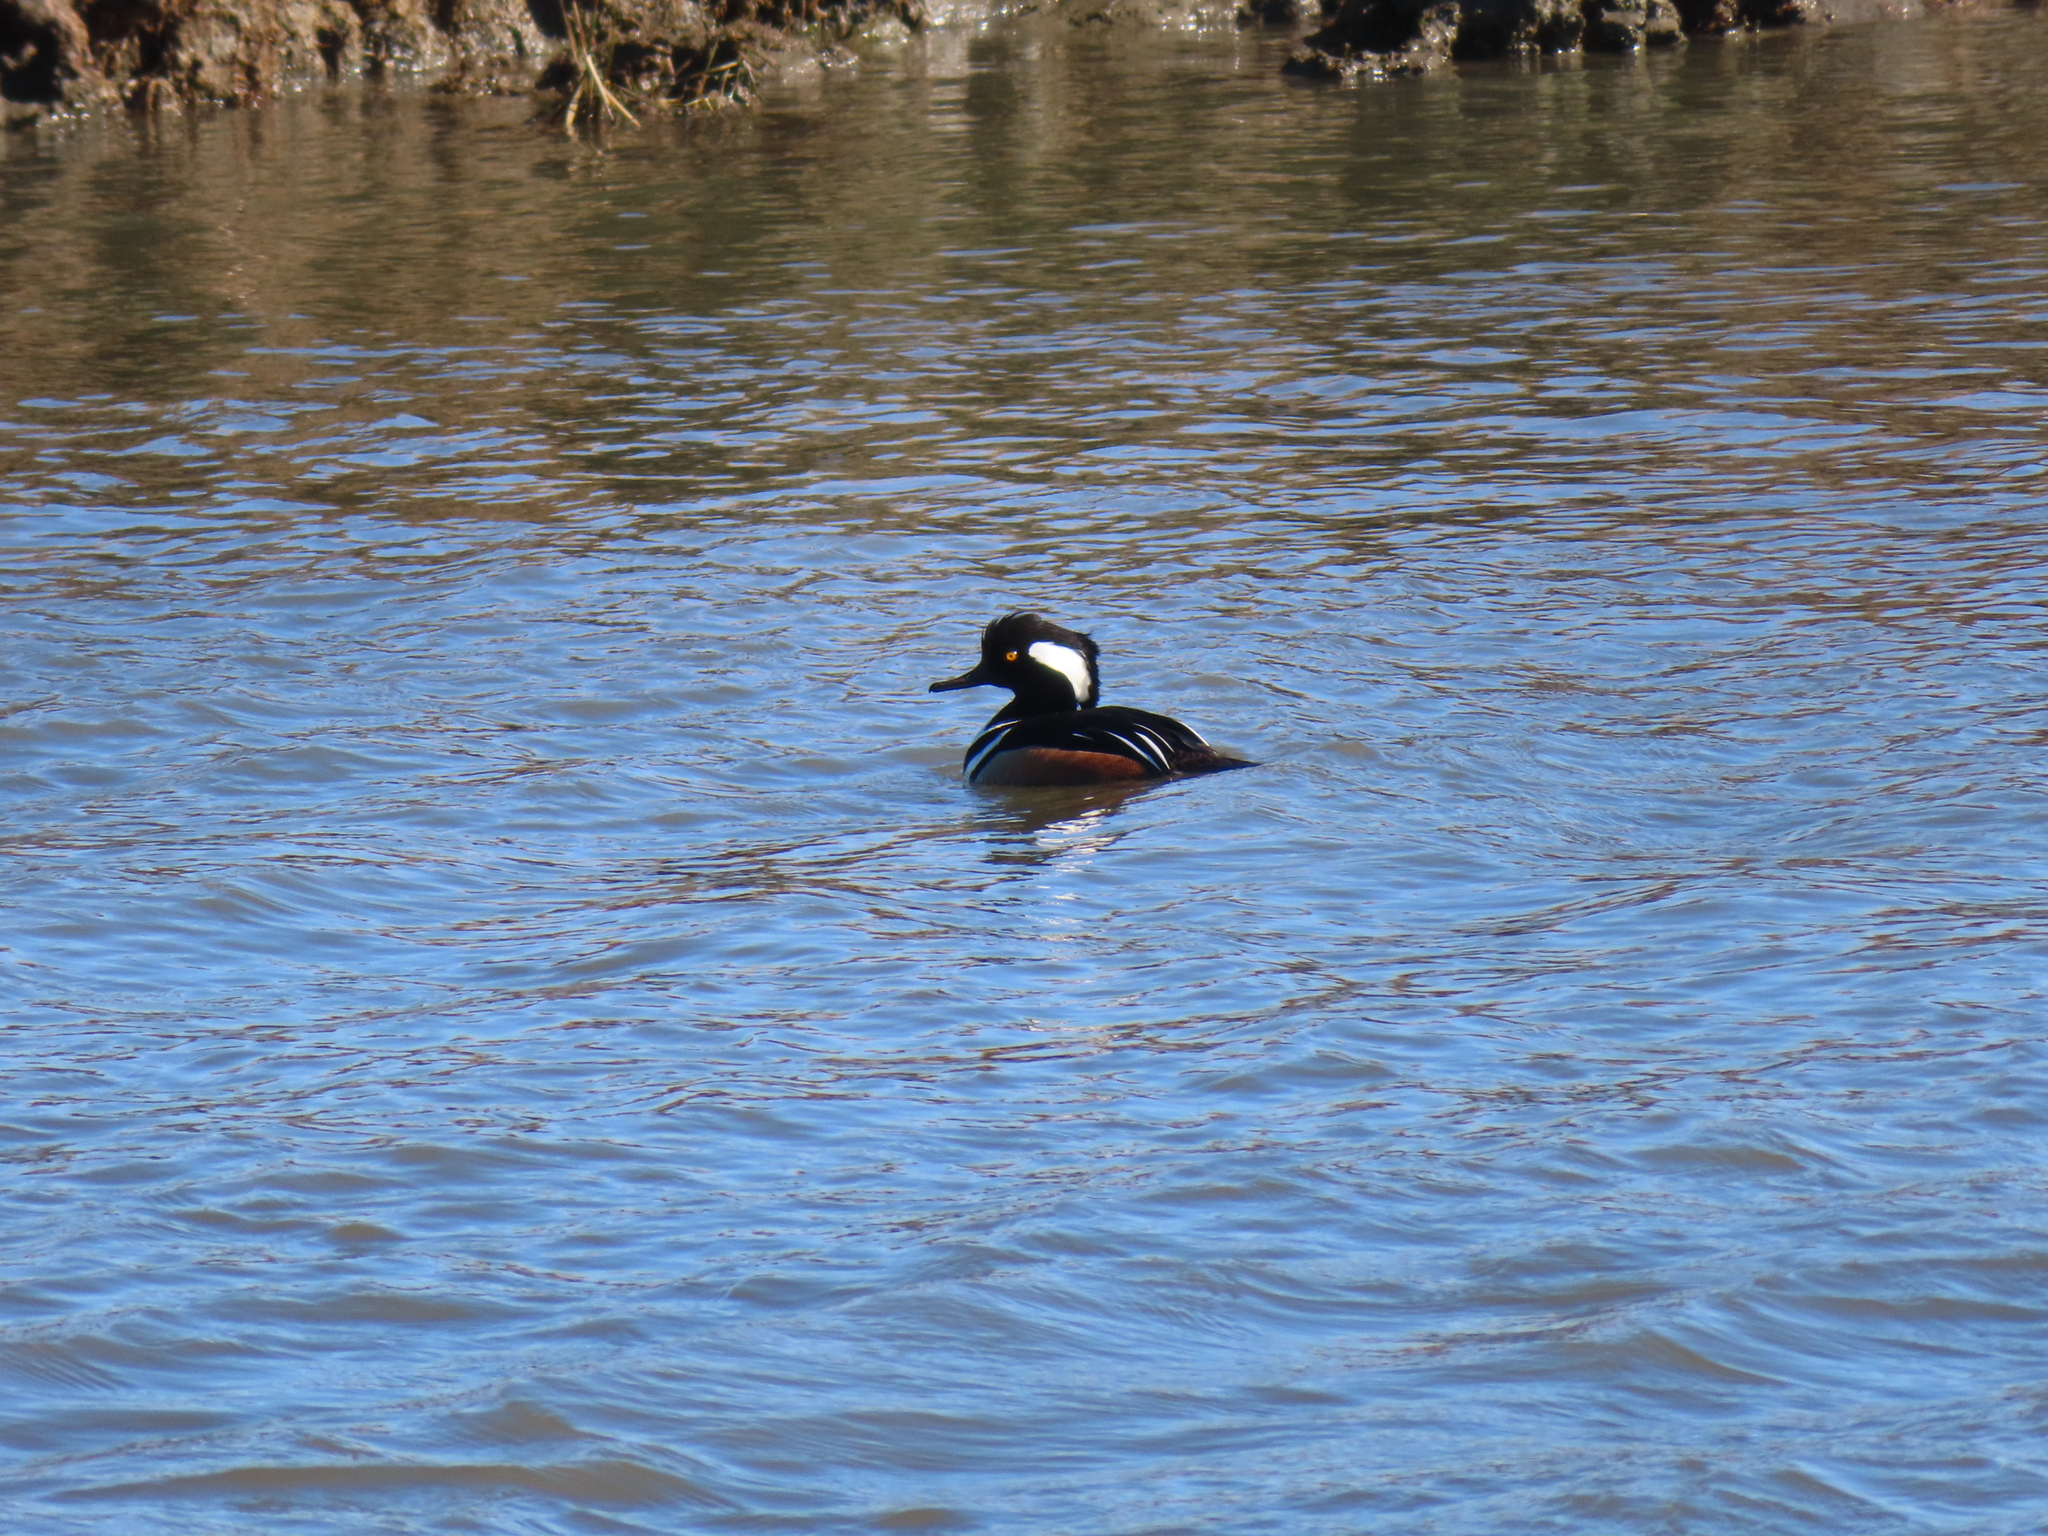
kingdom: Animalia
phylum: Chordata
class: Aves
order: Anseriformes
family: Anatidae
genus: Lophodytes
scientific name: Lophodytes cucullatus
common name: Hooded merganser
